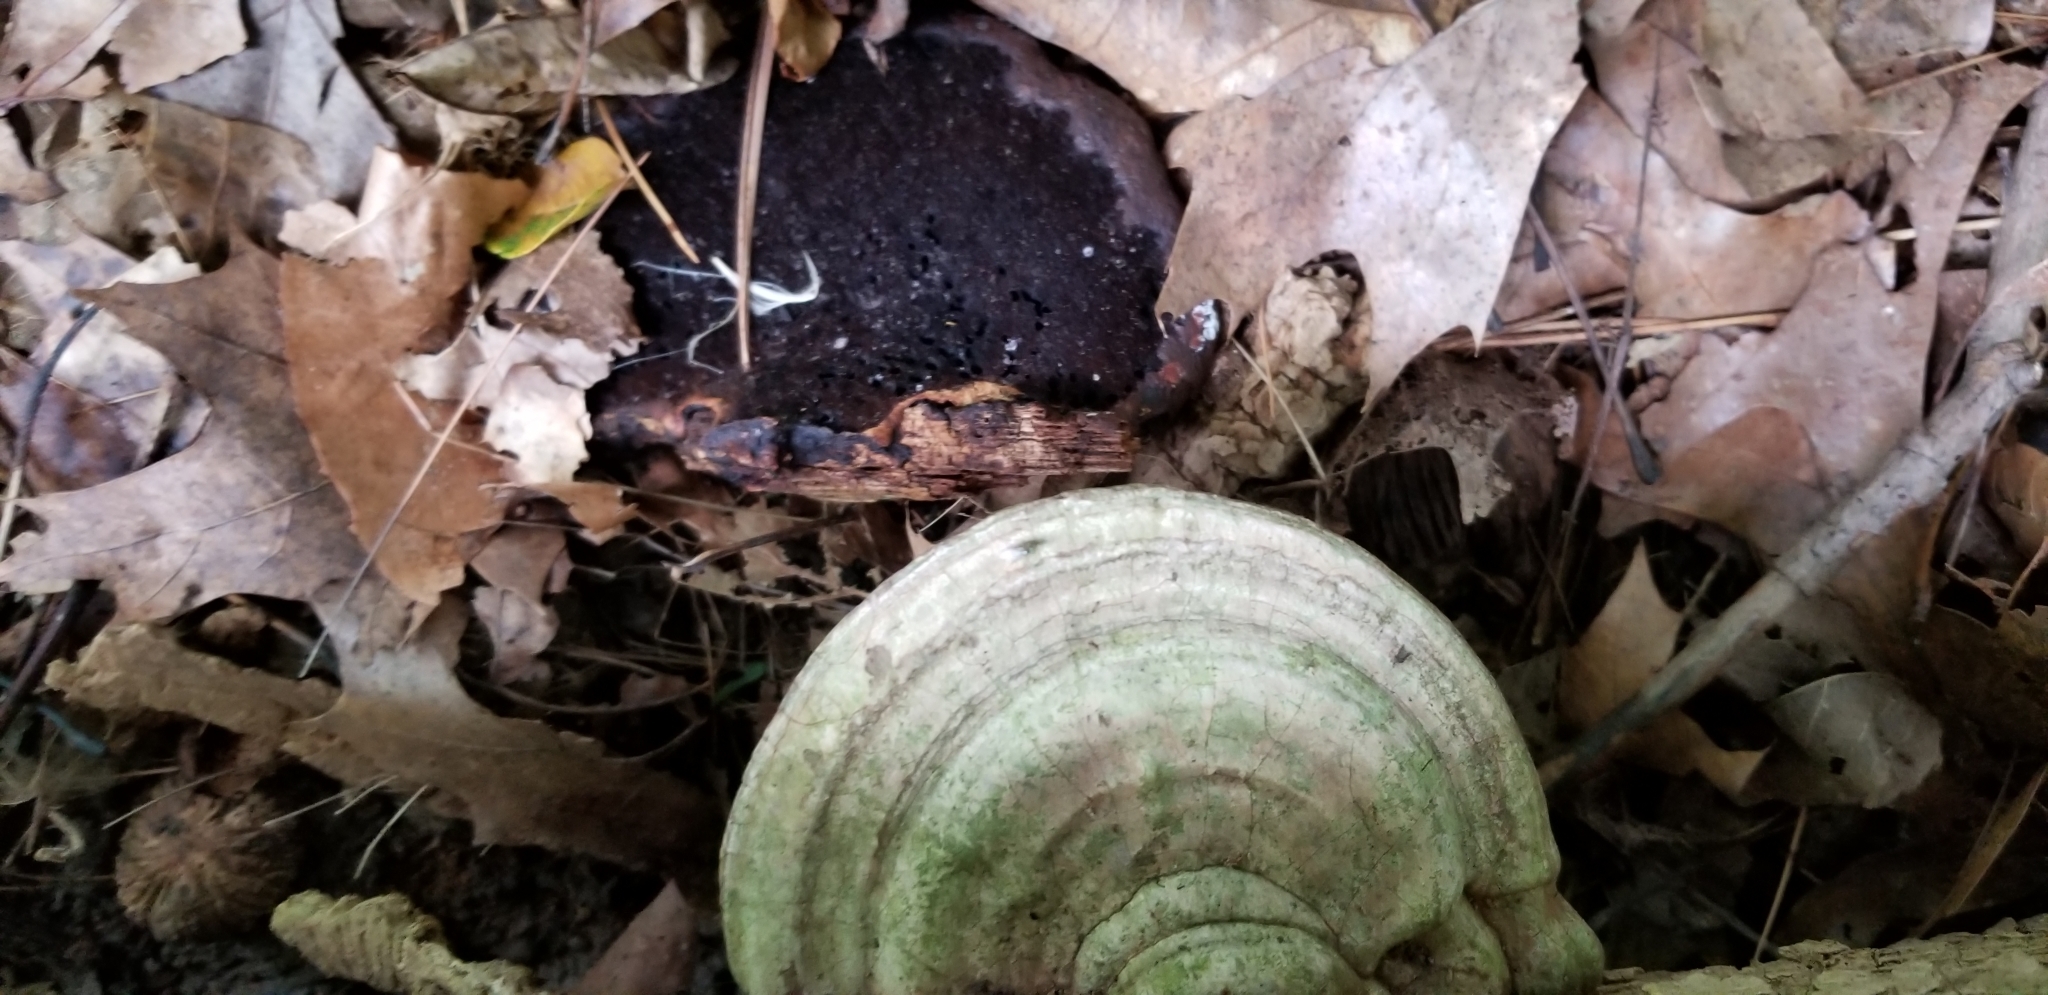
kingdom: Fungi
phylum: Basidiomycota
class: Agaricomycetes
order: Polyporales
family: Polyporaceae
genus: Ganoderma
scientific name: Ganoderma applanatum
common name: Artist's bracket
